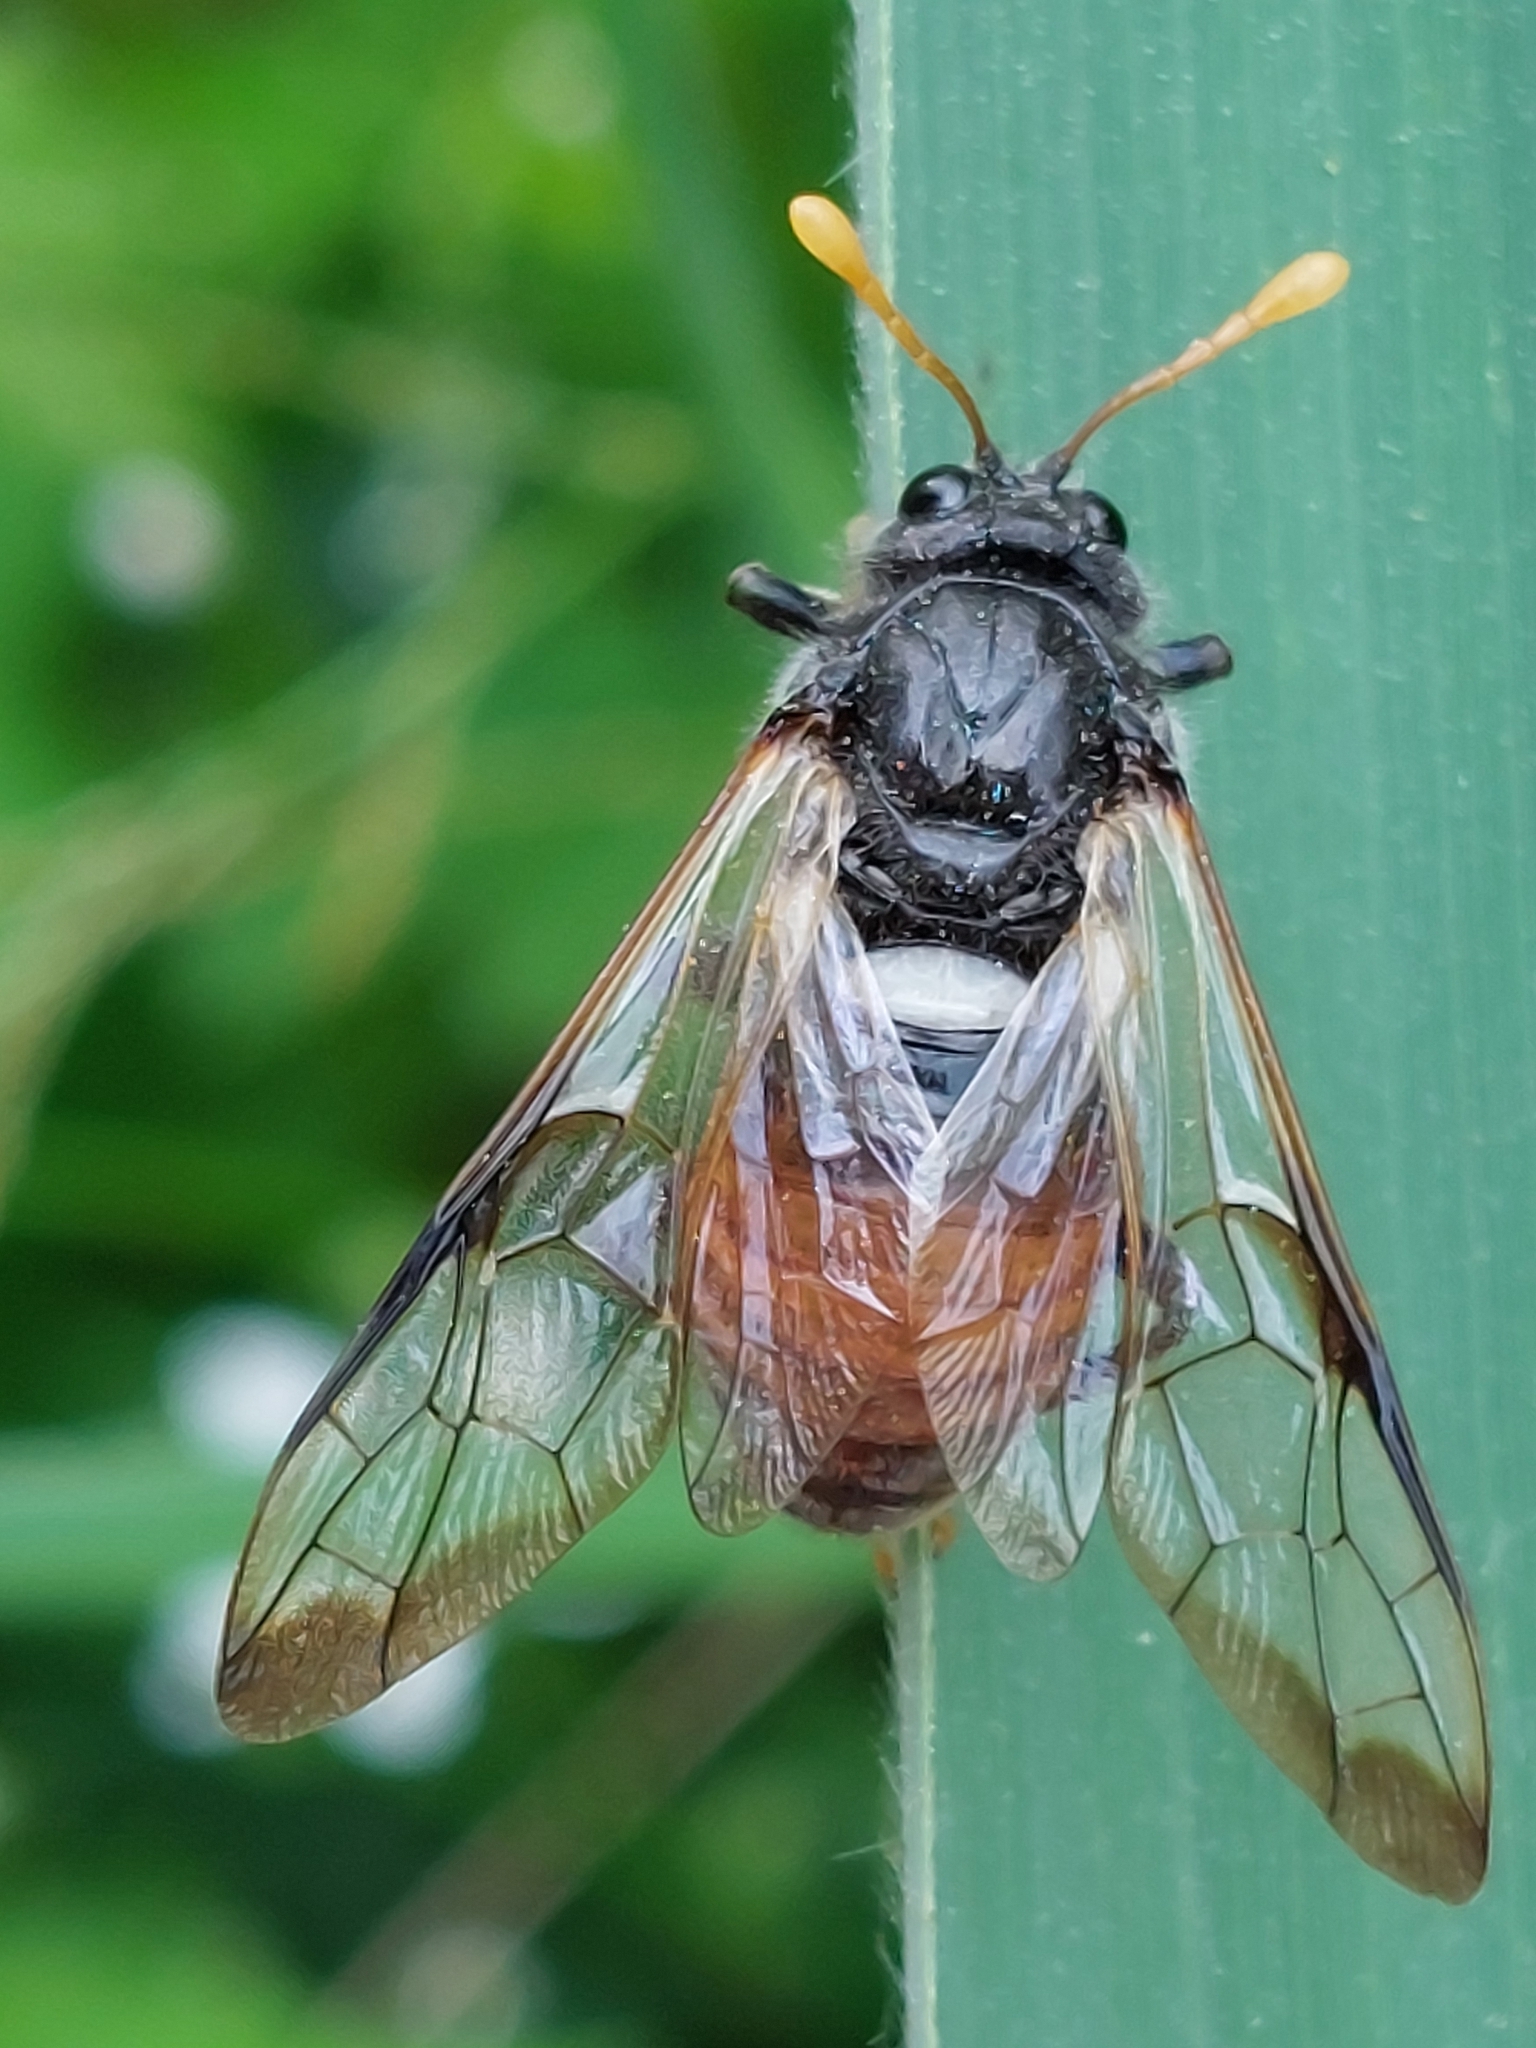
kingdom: Animalia
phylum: Arthropoda
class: Insecta
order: Hymenoptera
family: Cimbicidae
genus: Cimbex
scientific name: Cimbex femoratus
